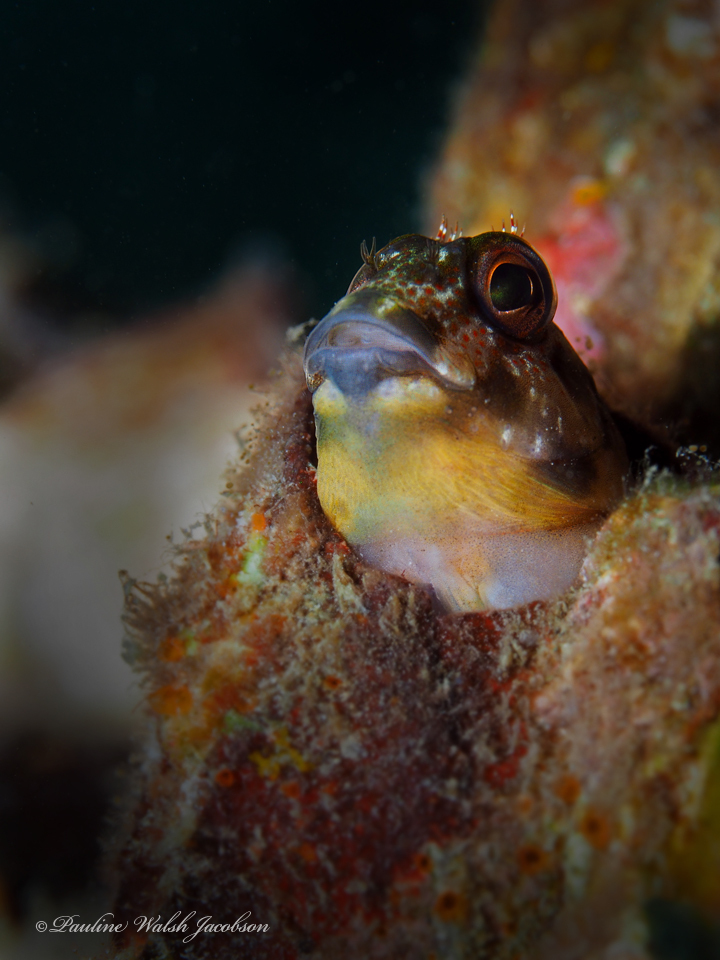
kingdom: Animalia
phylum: Chordata
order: Perciformes
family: Blenniidae
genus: Scartella
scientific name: Scartella cristata
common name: Molly miller
